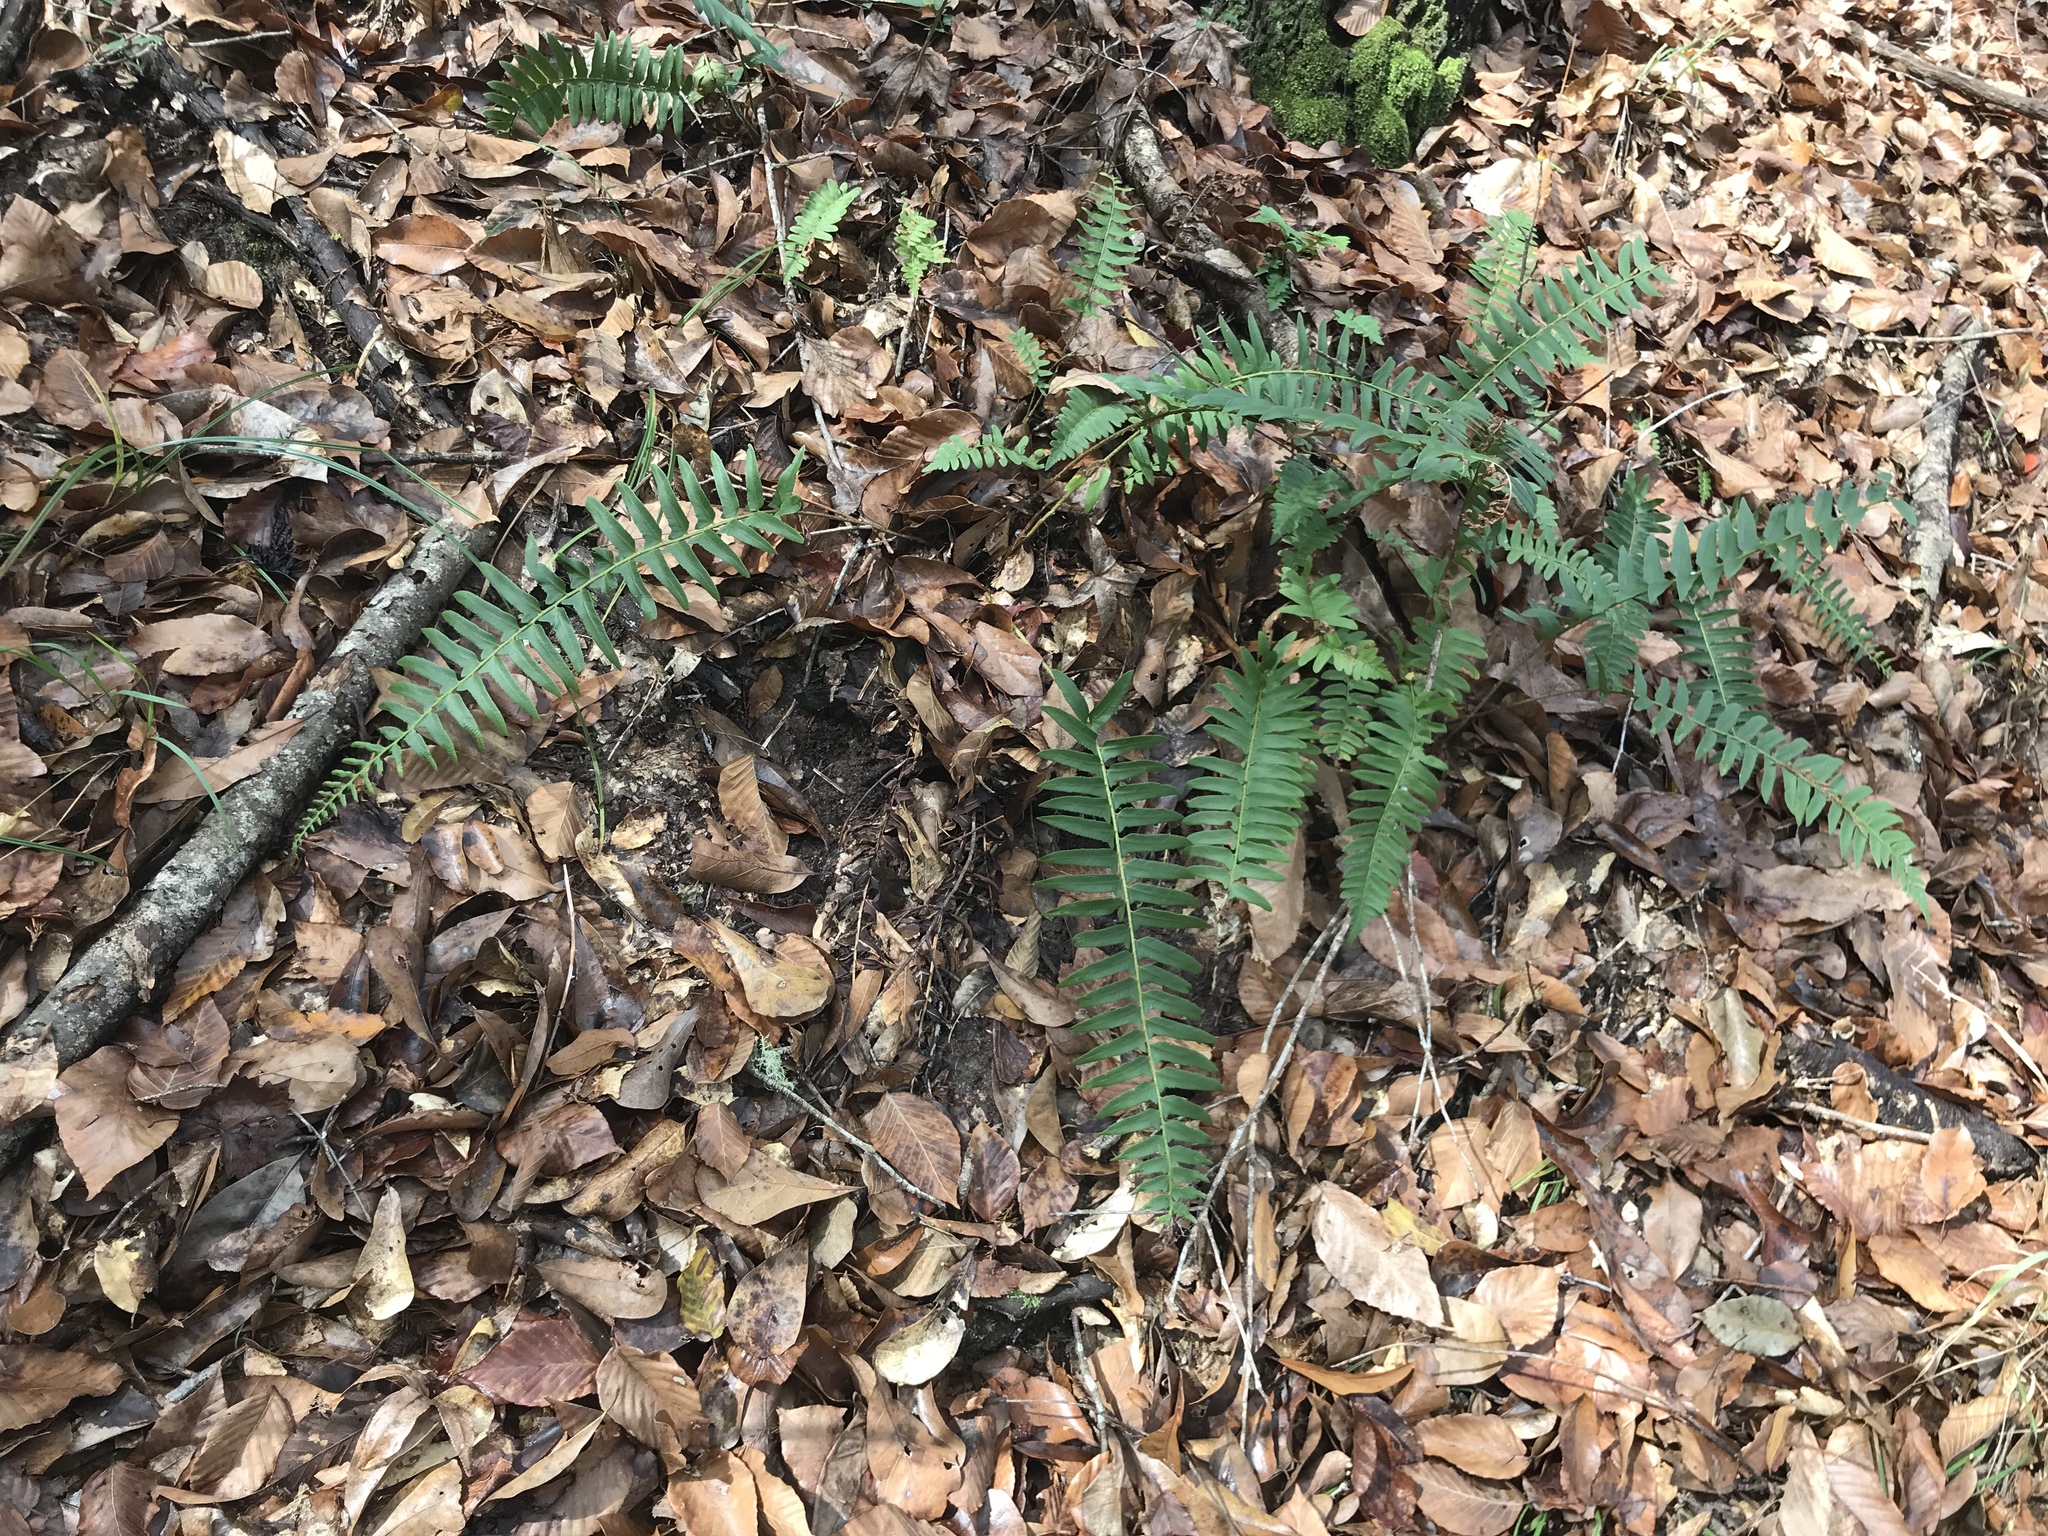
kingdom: Plantae
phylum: Tracheophyta
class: Polypodiopsida
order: Polypodiales
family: Dryopteridaceae
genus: Polystichum
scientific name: Polystichum acrostichoides
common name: Christmas fern
